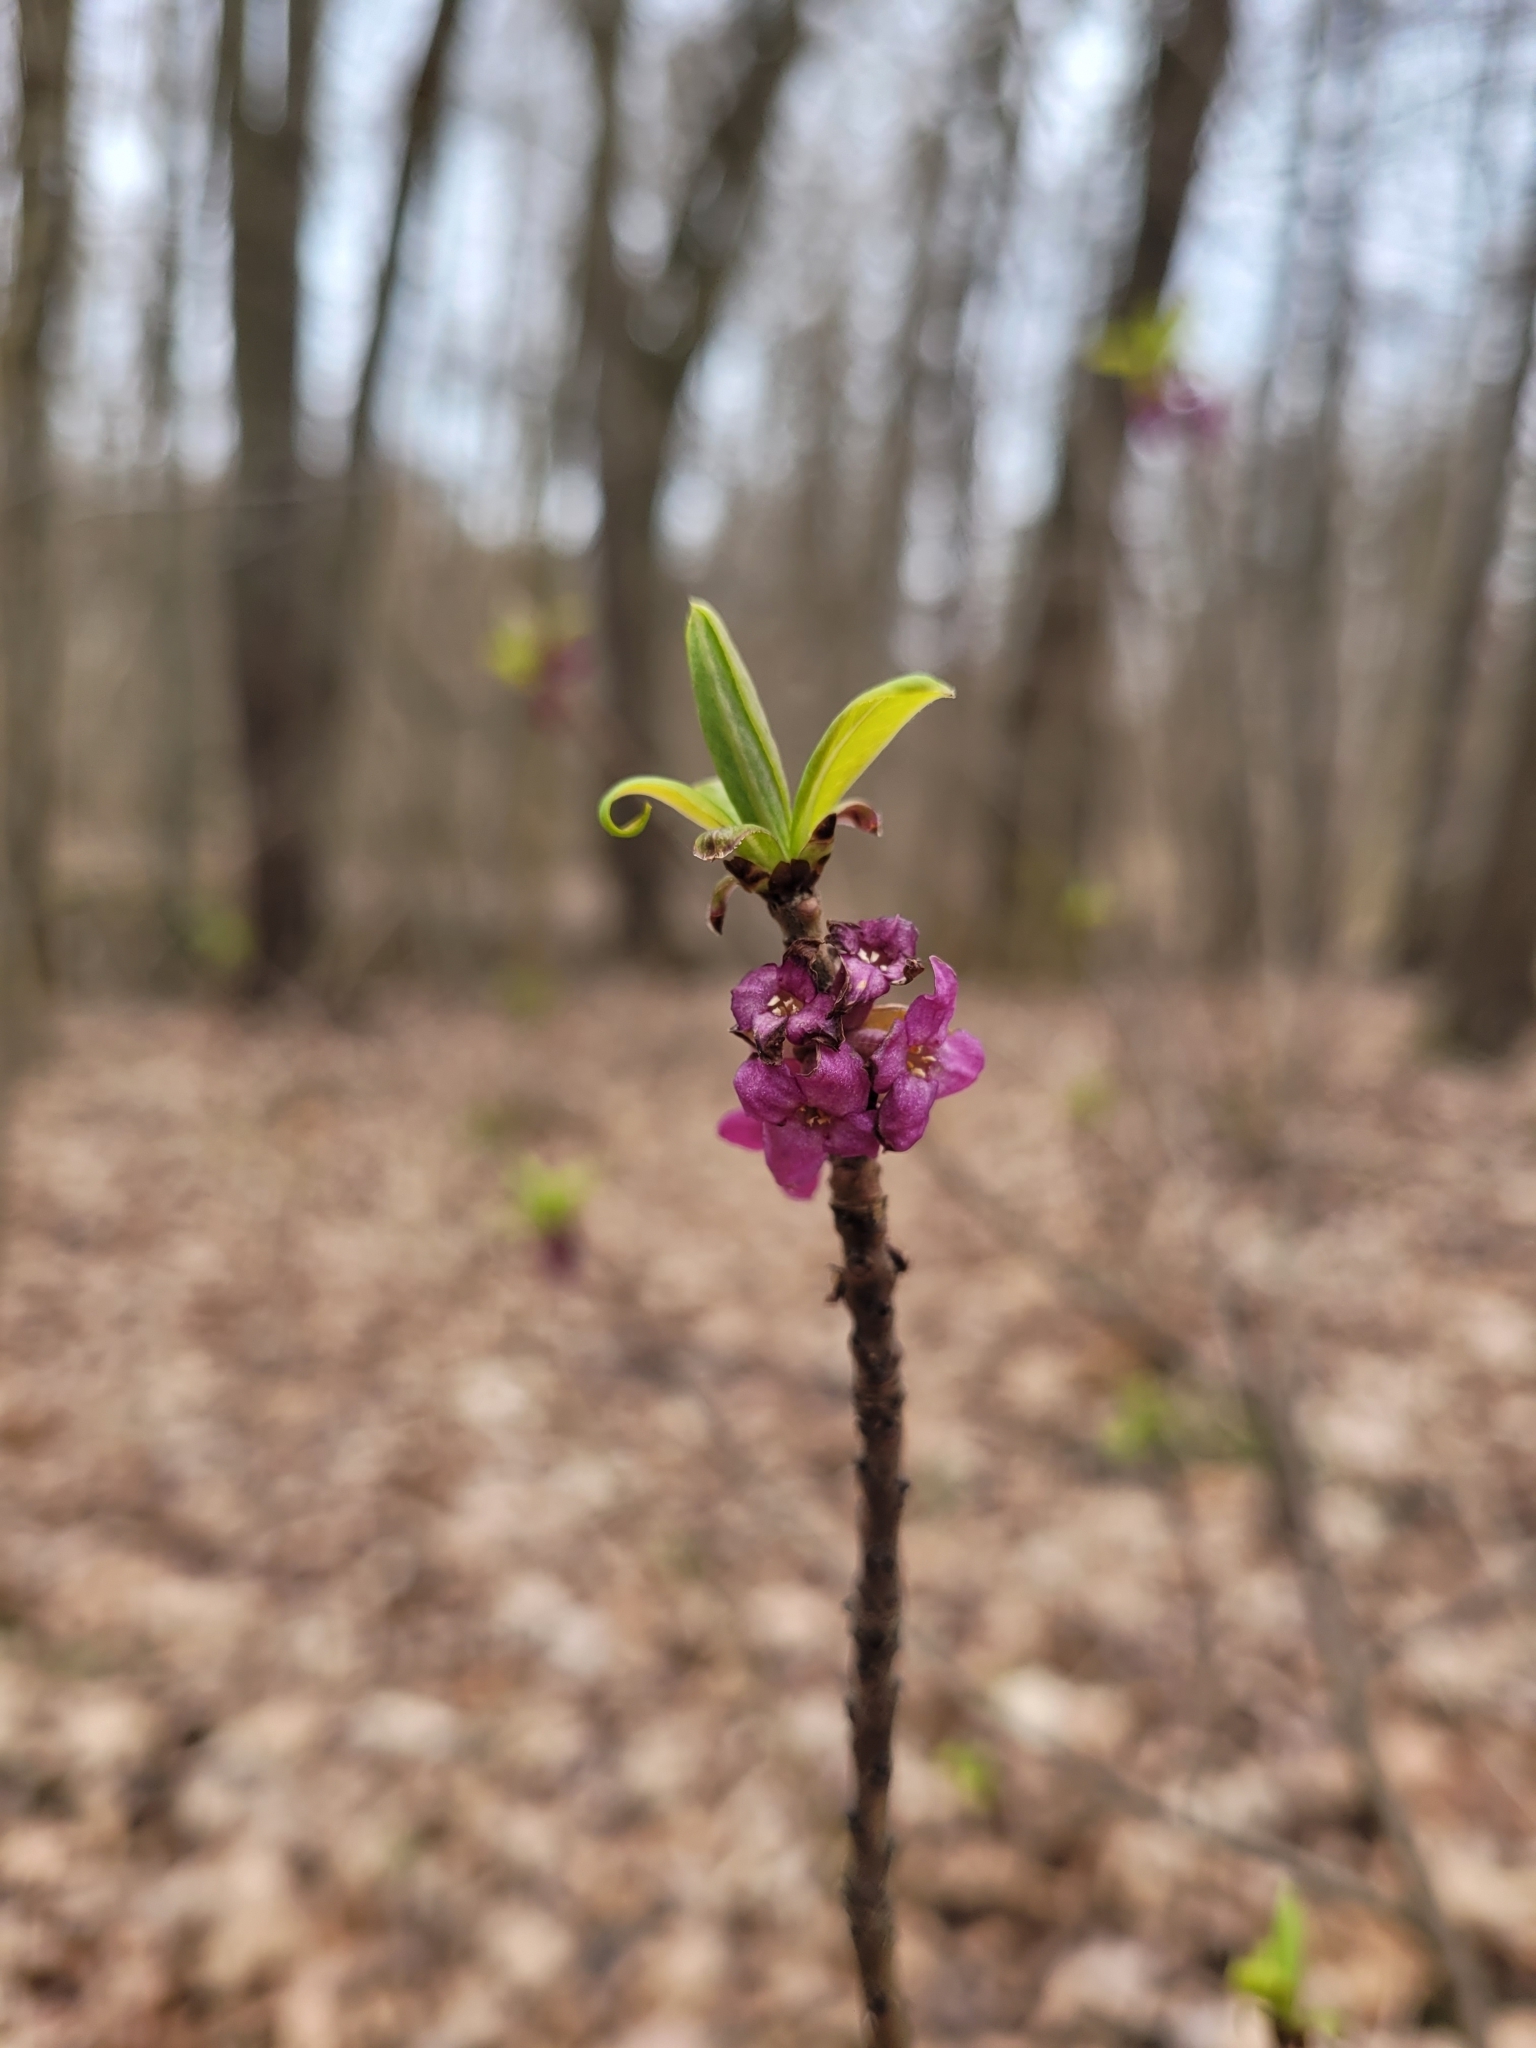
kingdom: Plantae
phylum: Tracheophyta
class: Magnoliopsida
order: Malvales
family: Thymelaeaceae
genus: Daphne
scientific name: Daphne mezereum
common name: Mezereon
